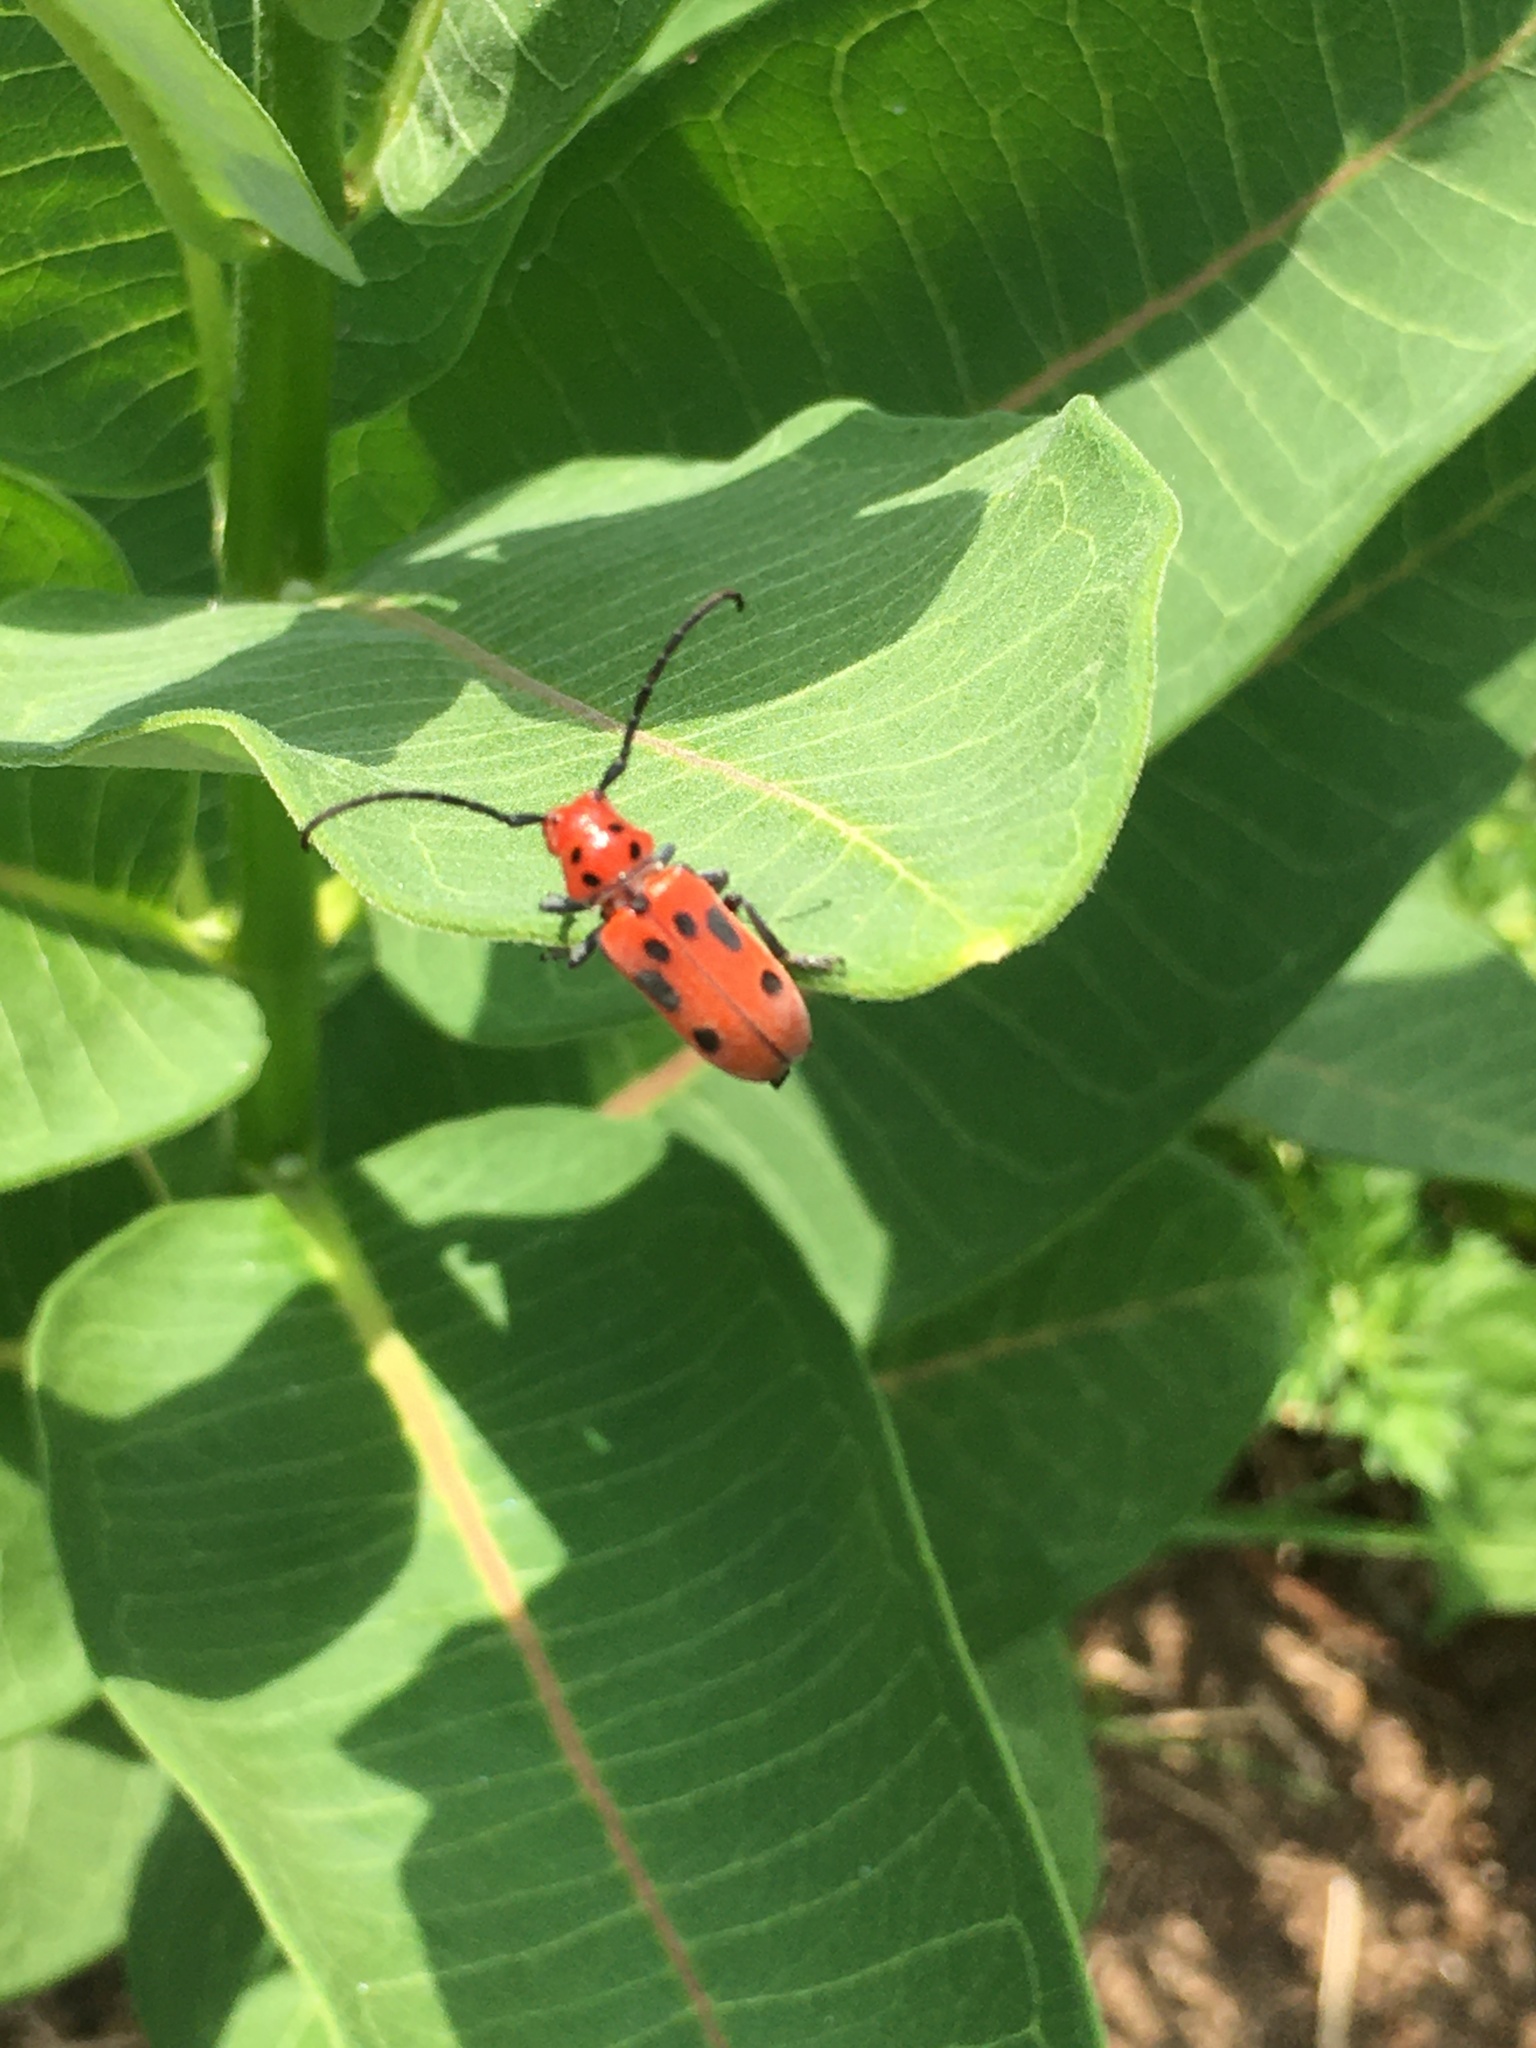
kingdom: Animalia
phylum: Arthropoda
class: Insecta
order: Coleoptera
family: Cerambycidae
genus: Tetraopes
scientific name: Tetraopes tetrophthalmus
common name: Red milkweed beetle
